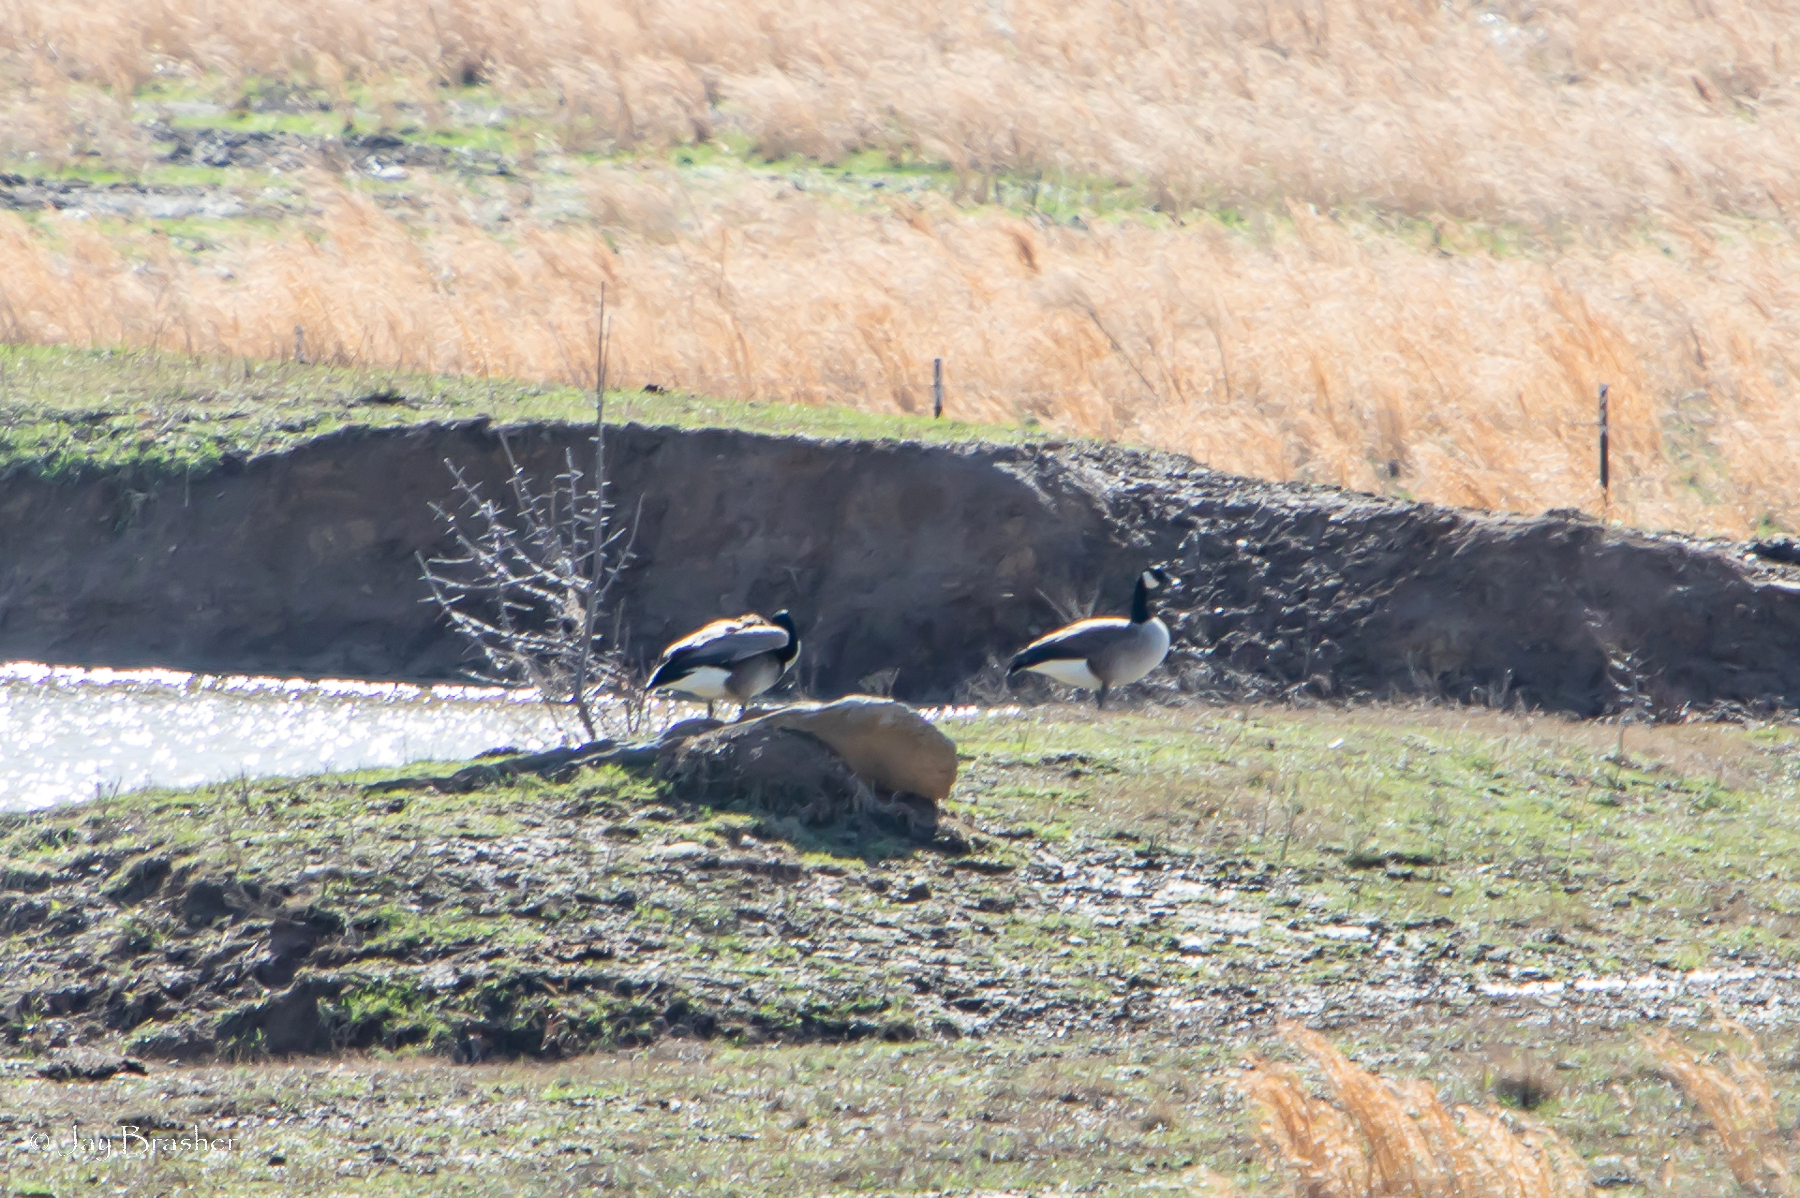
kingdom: Animalia
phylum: Chordata
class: Aves
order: Anseriformes
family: Anatidae
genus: Branta
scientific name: Branta canadensis
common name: Canada goose
